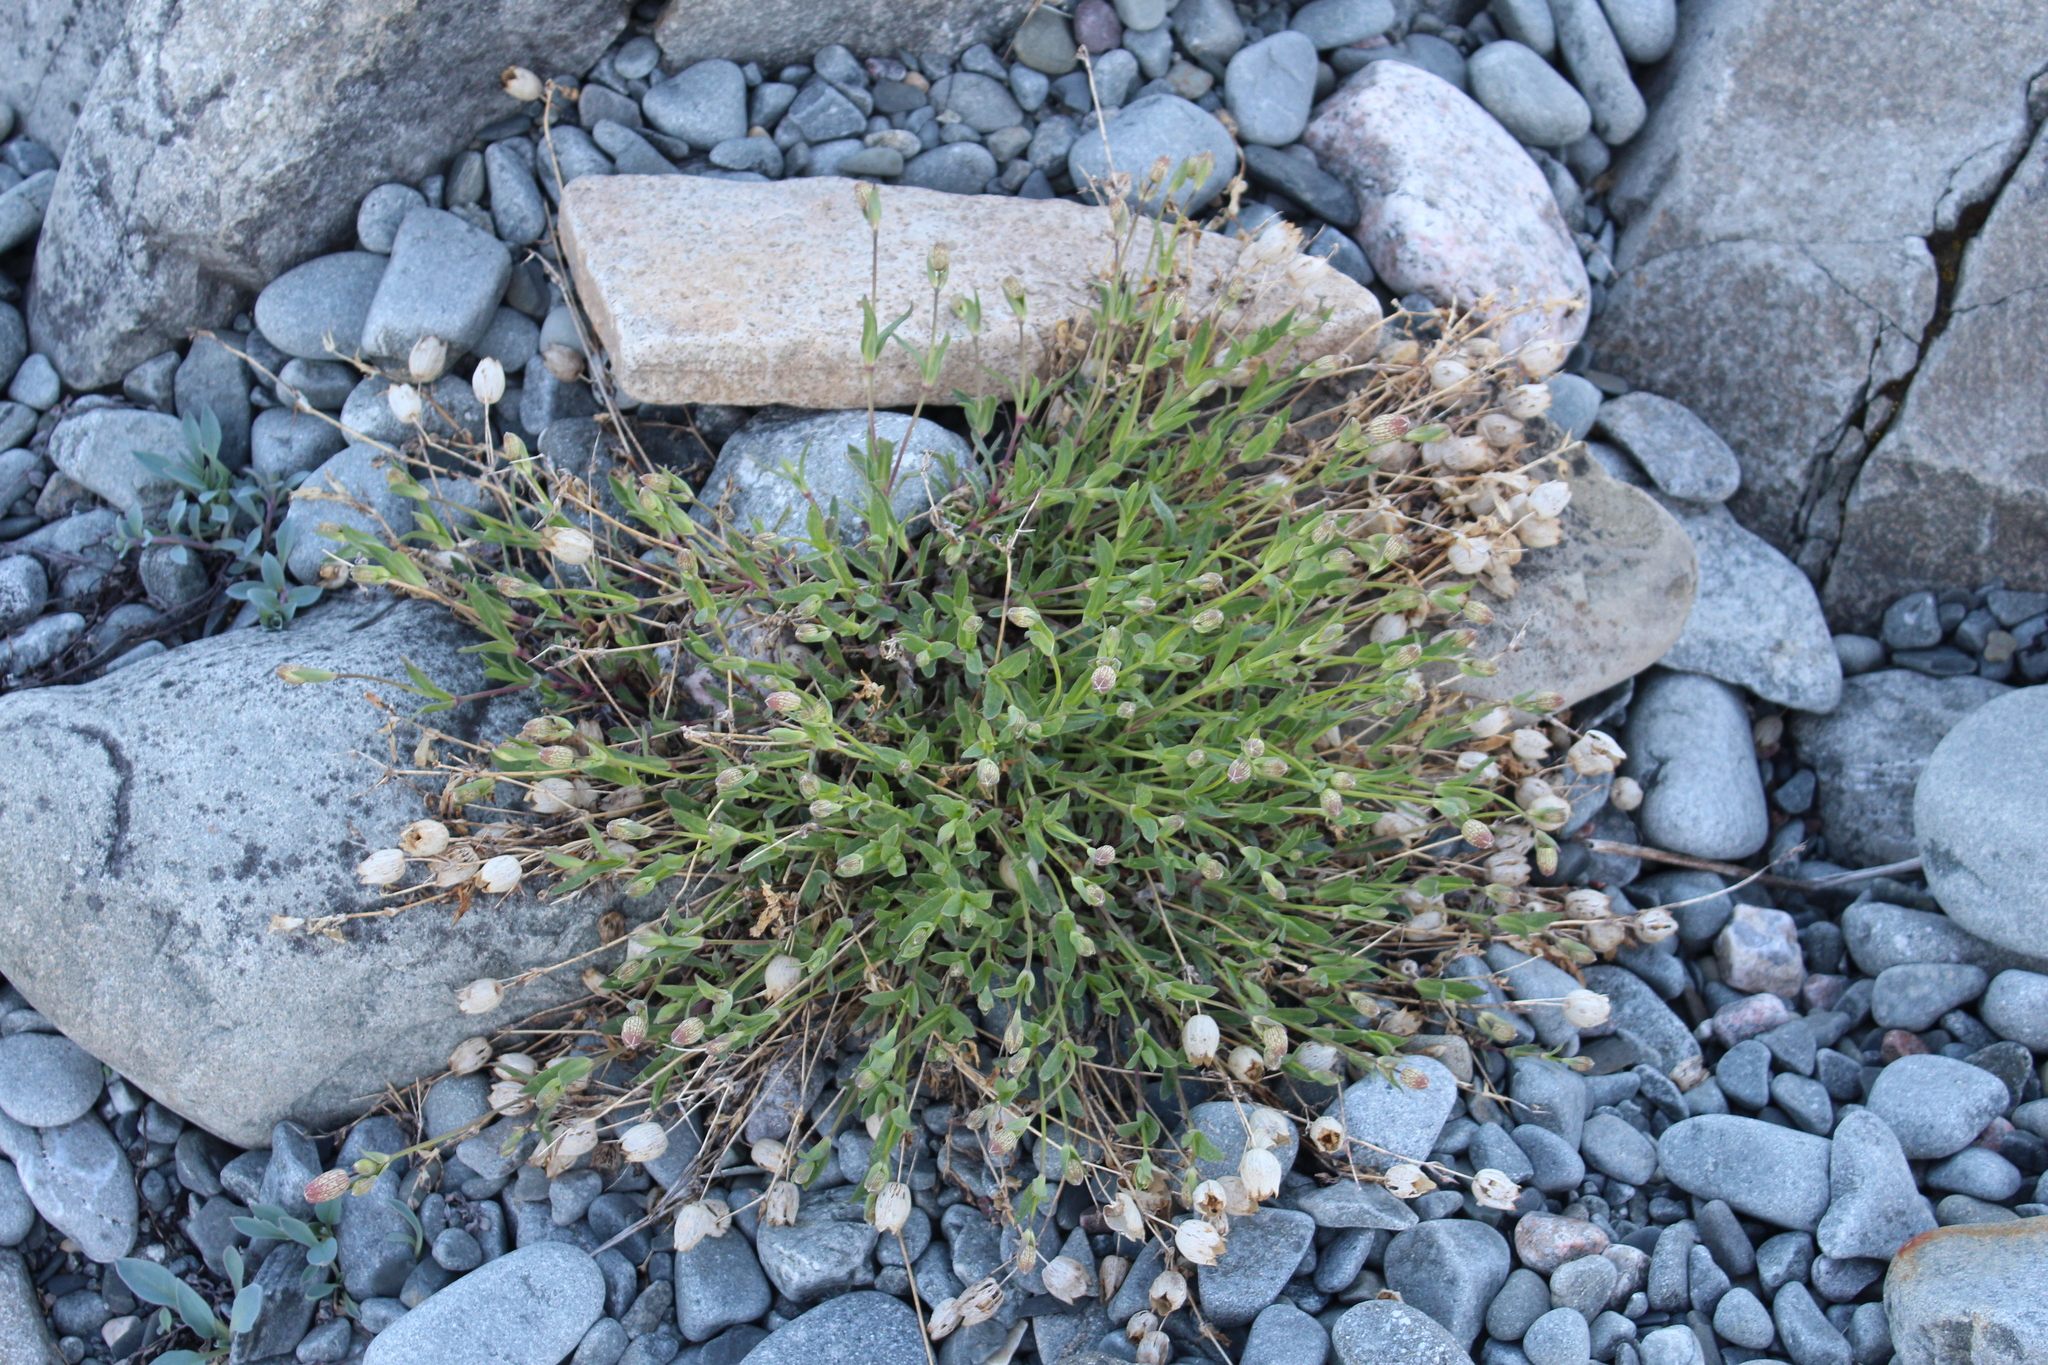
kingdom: Plantae
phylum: Tracheophyta
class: Magnoliopsida
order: Caryophyllales
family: Caryophyllaceae
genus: Silene
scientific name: Silene uniflora
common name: Sea campion
